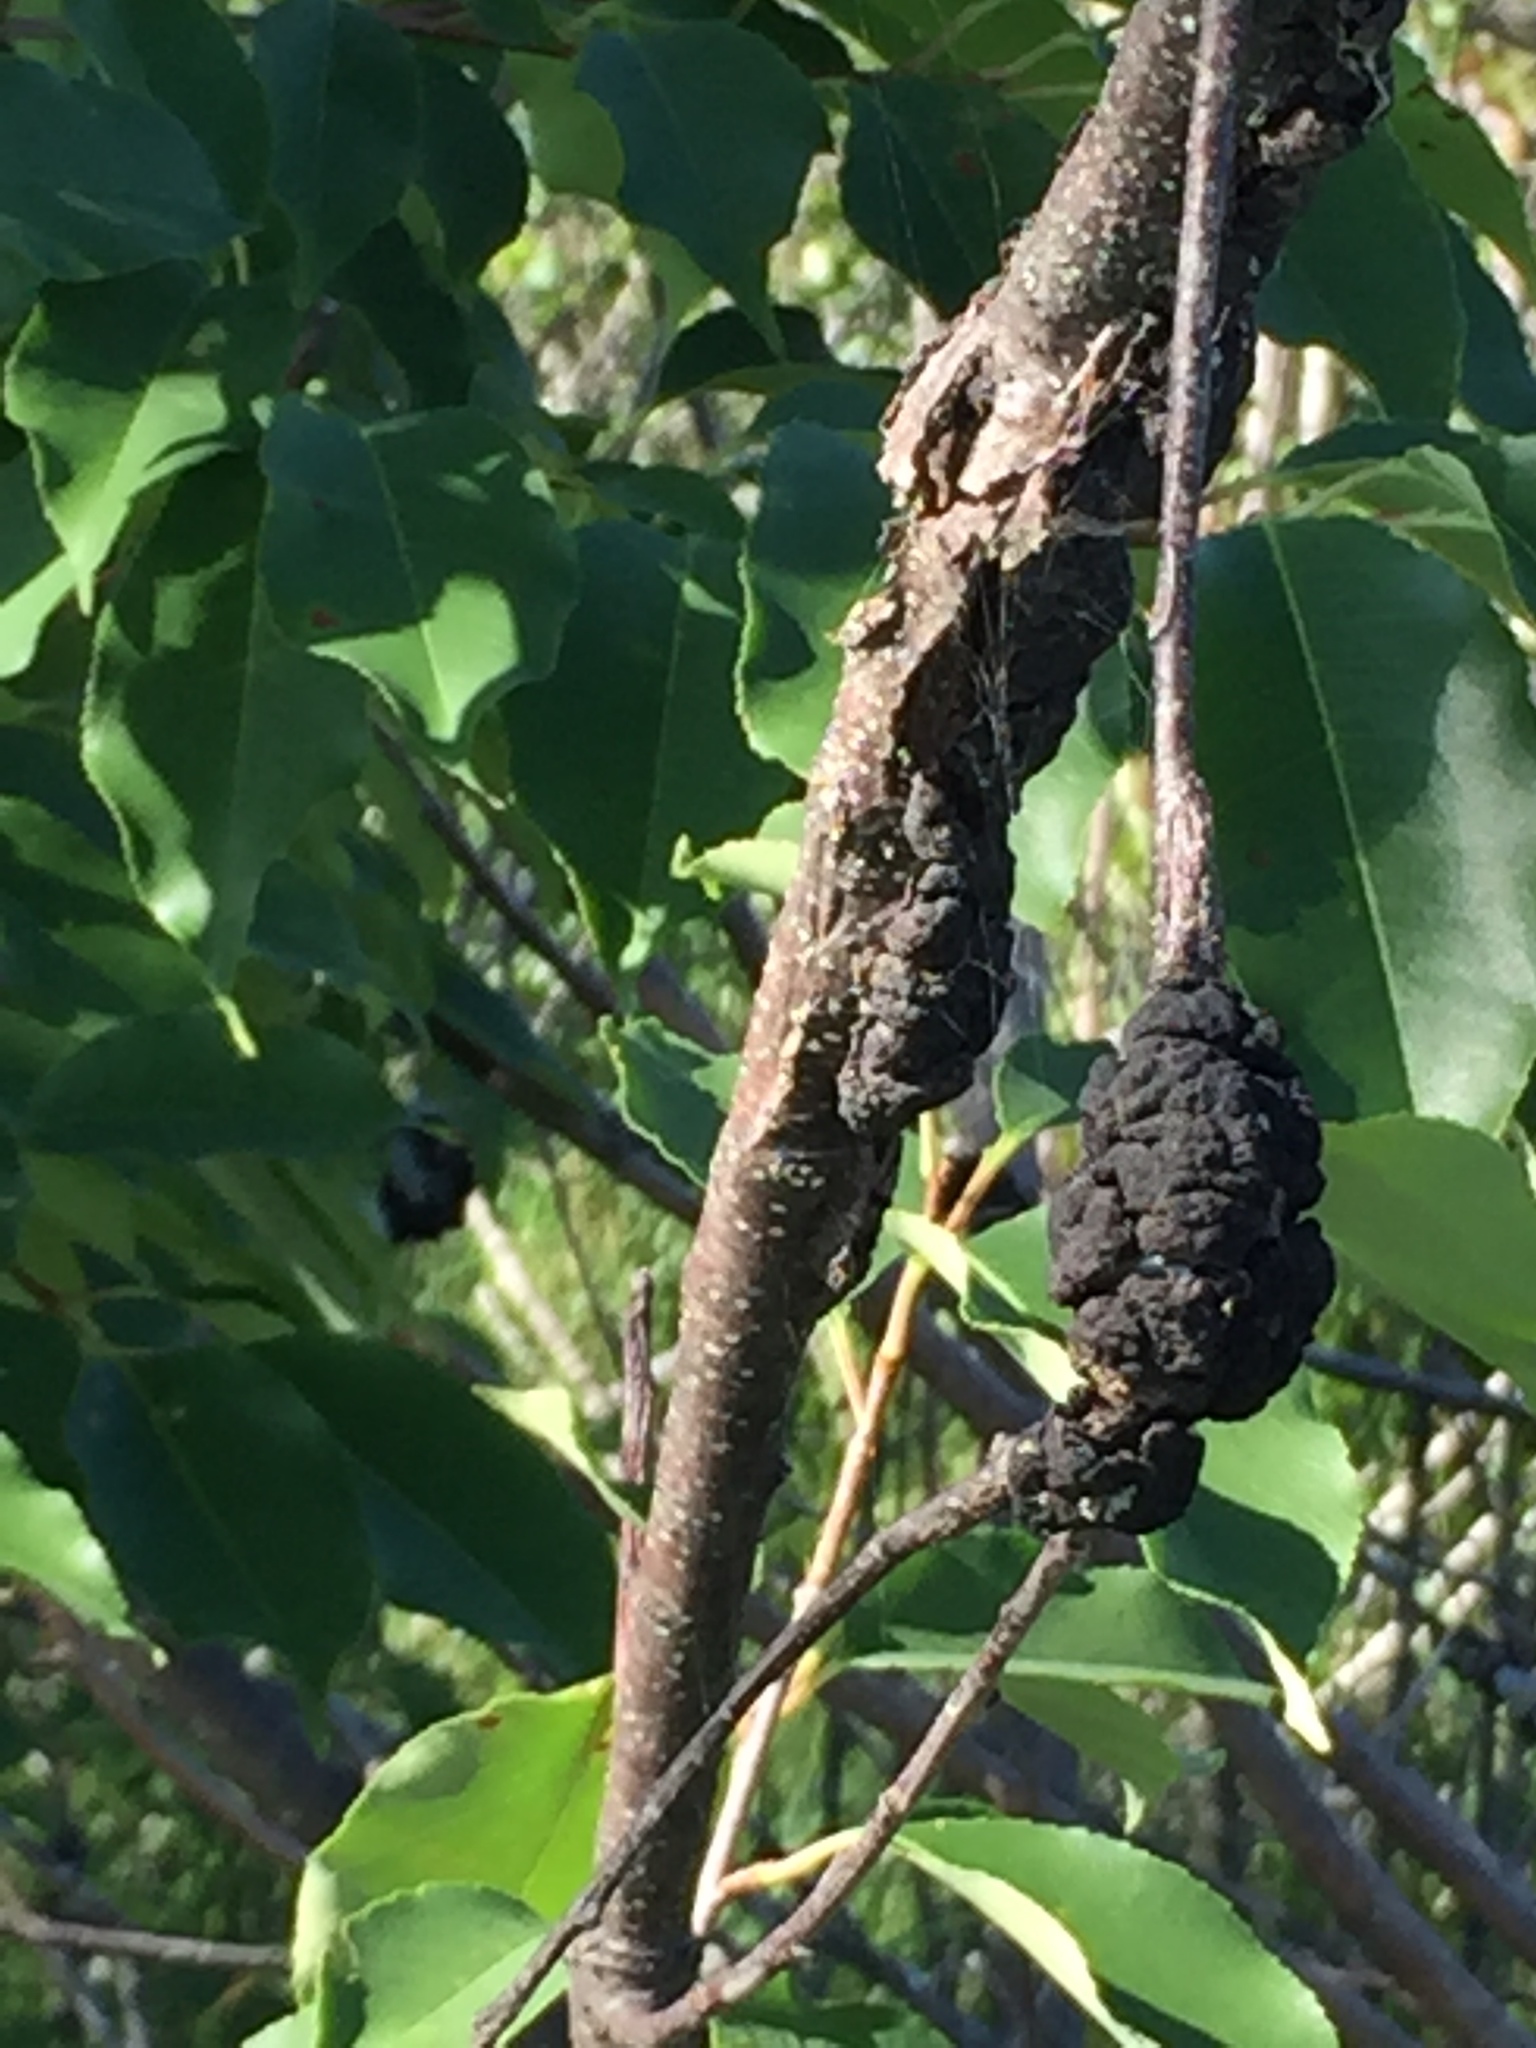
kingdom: Fungi
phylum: Ascomycota
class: Dothideomycetes
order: Venturiales
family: Venturiaceae
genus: Apiosporina
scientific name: Apiosporina morbosa
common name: Black knot
